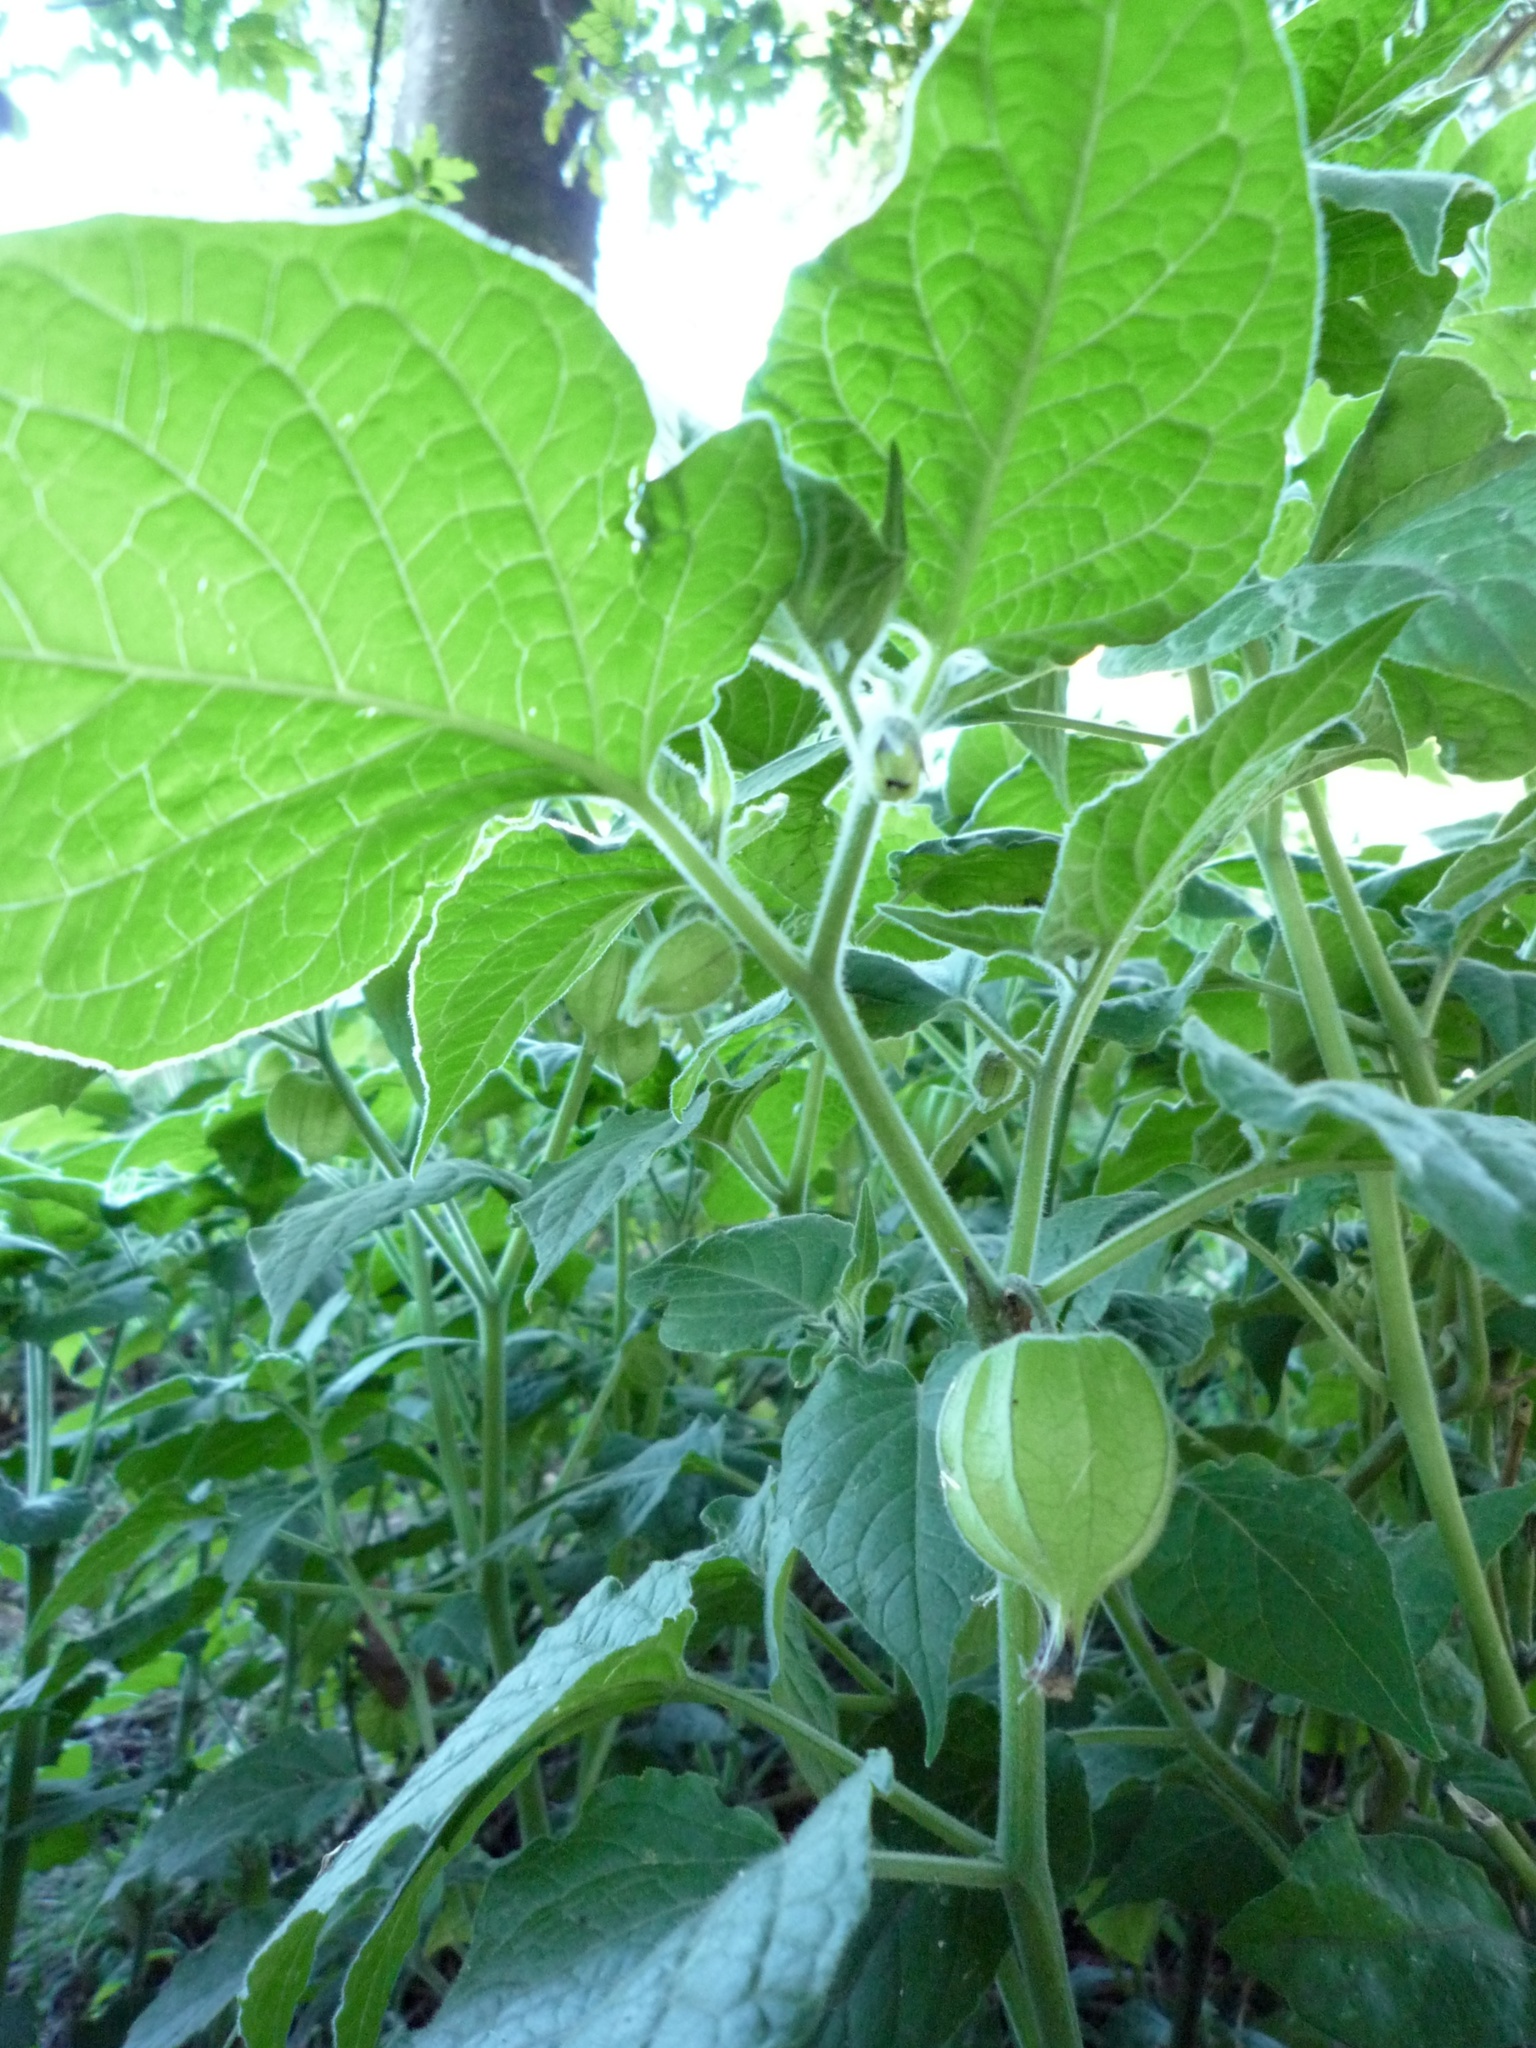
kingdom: Plantae
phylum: Tracheophyta
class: Magnoliopsida
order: Solanales
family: Solanaceae
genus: Physalis
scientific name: Physalis peruviana
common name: Cape-gooseberry
